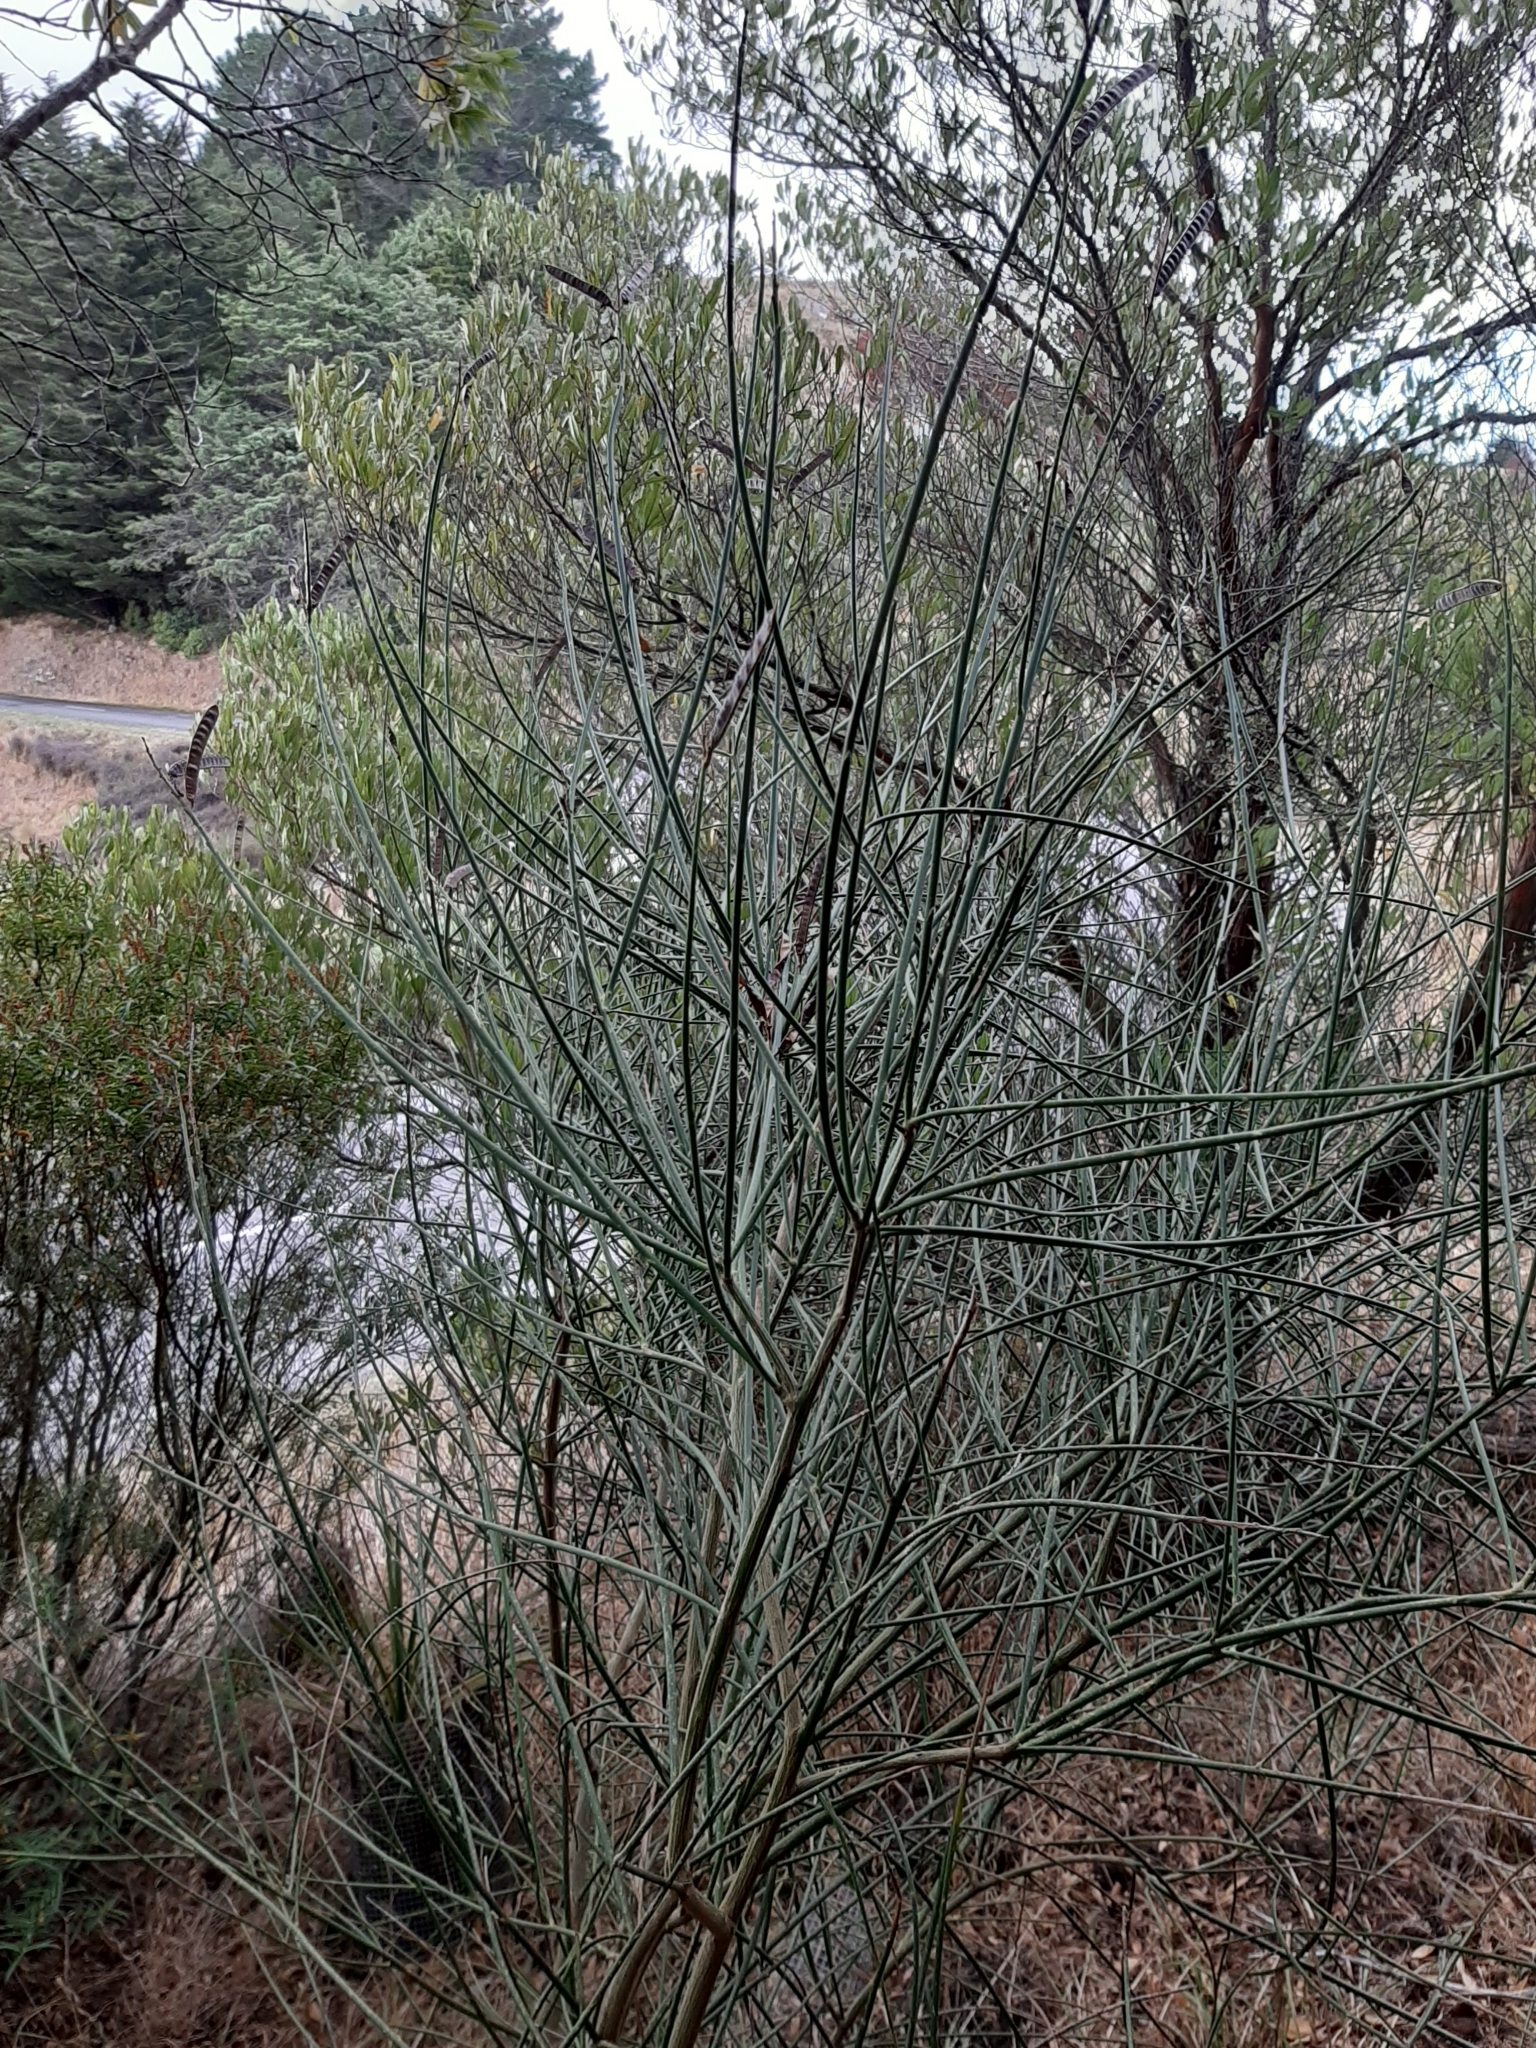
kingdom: Plantae
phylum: Tracheophyta
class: Magnoliopsida
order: Fabales
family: Fabaceae
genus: Cytisus
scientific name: Cytisus scoparius
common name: Scotch broom
